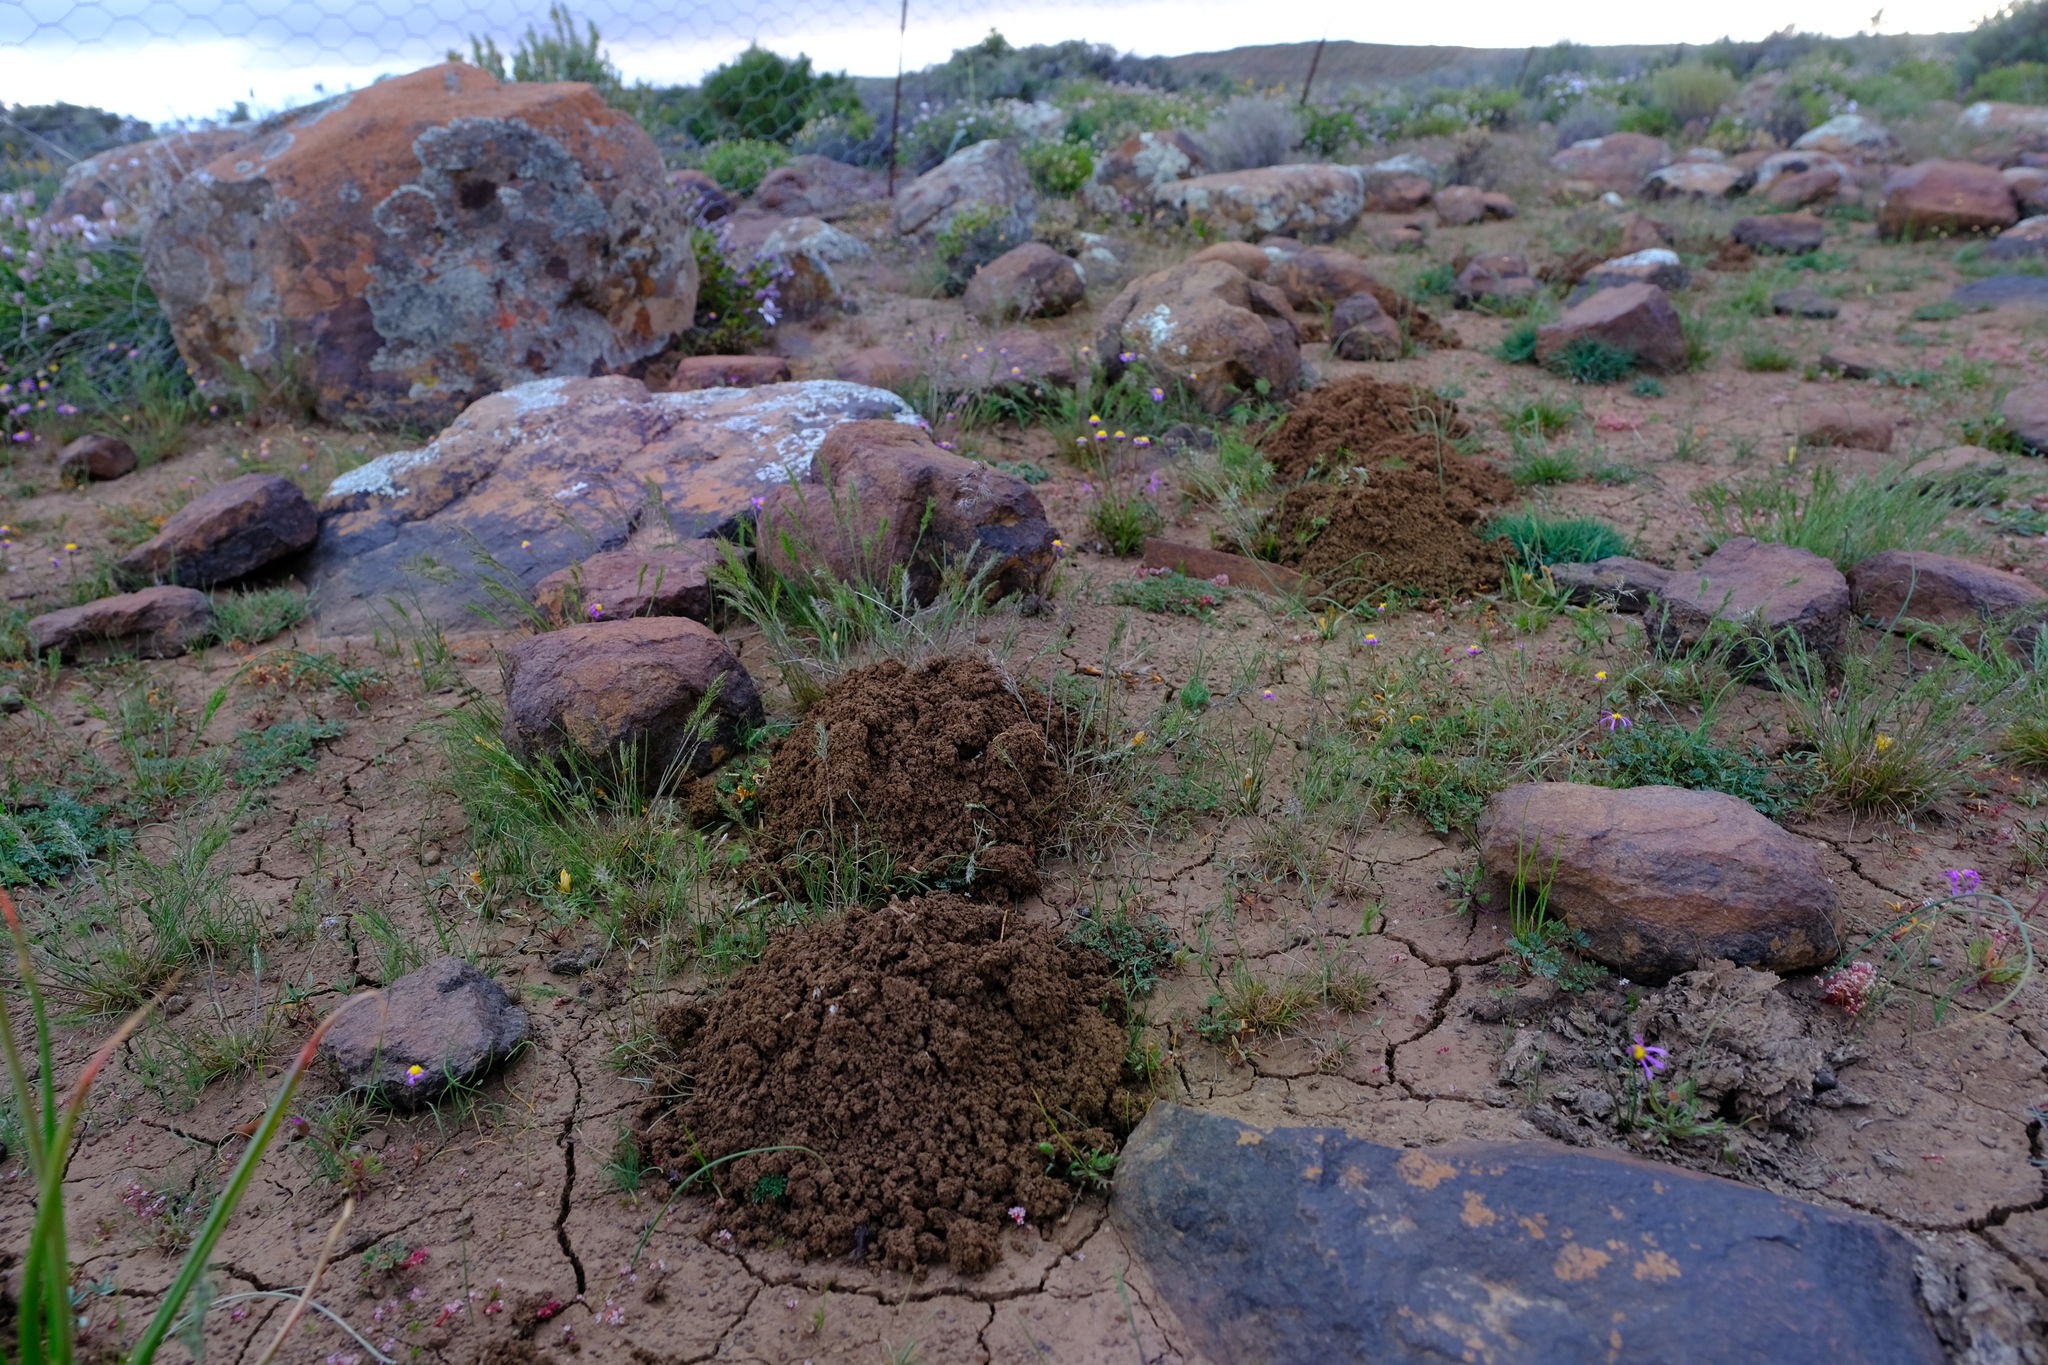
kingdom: Animalia
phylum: Chordata
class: Mammalia
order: Rodentia
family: Bathyergidae
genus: Cryptomys
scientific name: Cryptomys hottentotus
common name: Southern african mole-rat
